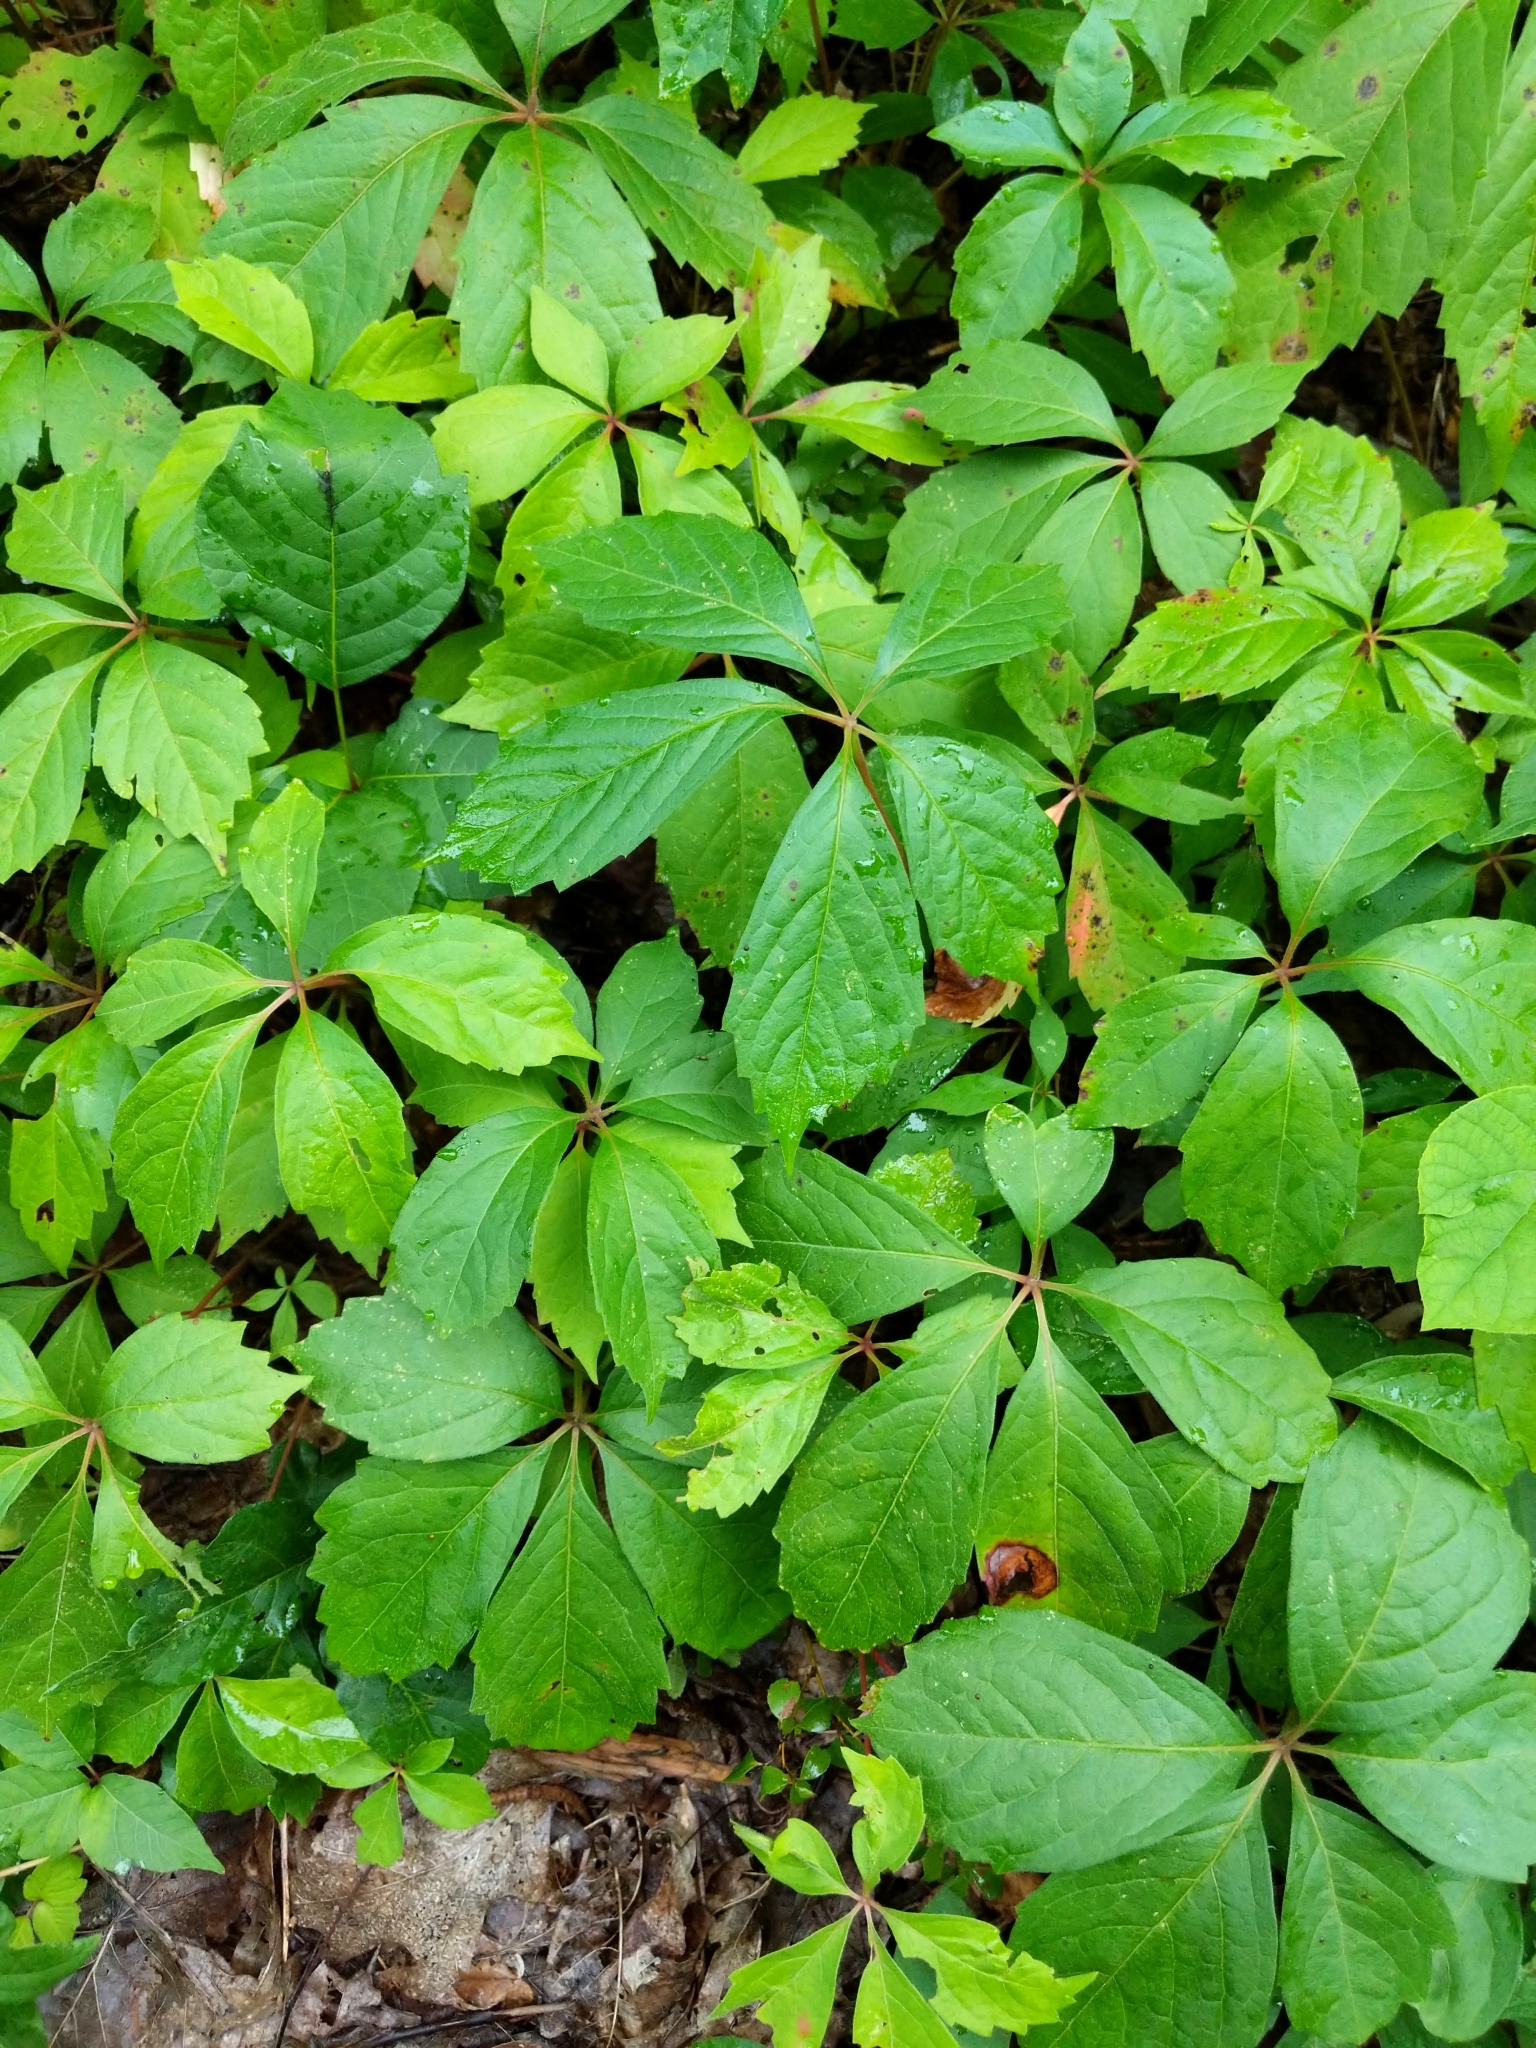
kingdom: Plantae
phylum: Tracheophyta
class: Magnoliopsida
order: Vitales
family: Vitaceae
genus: Parthenocissus
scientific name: Parthenocissus quinquefolia
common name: Virginia-creeper
